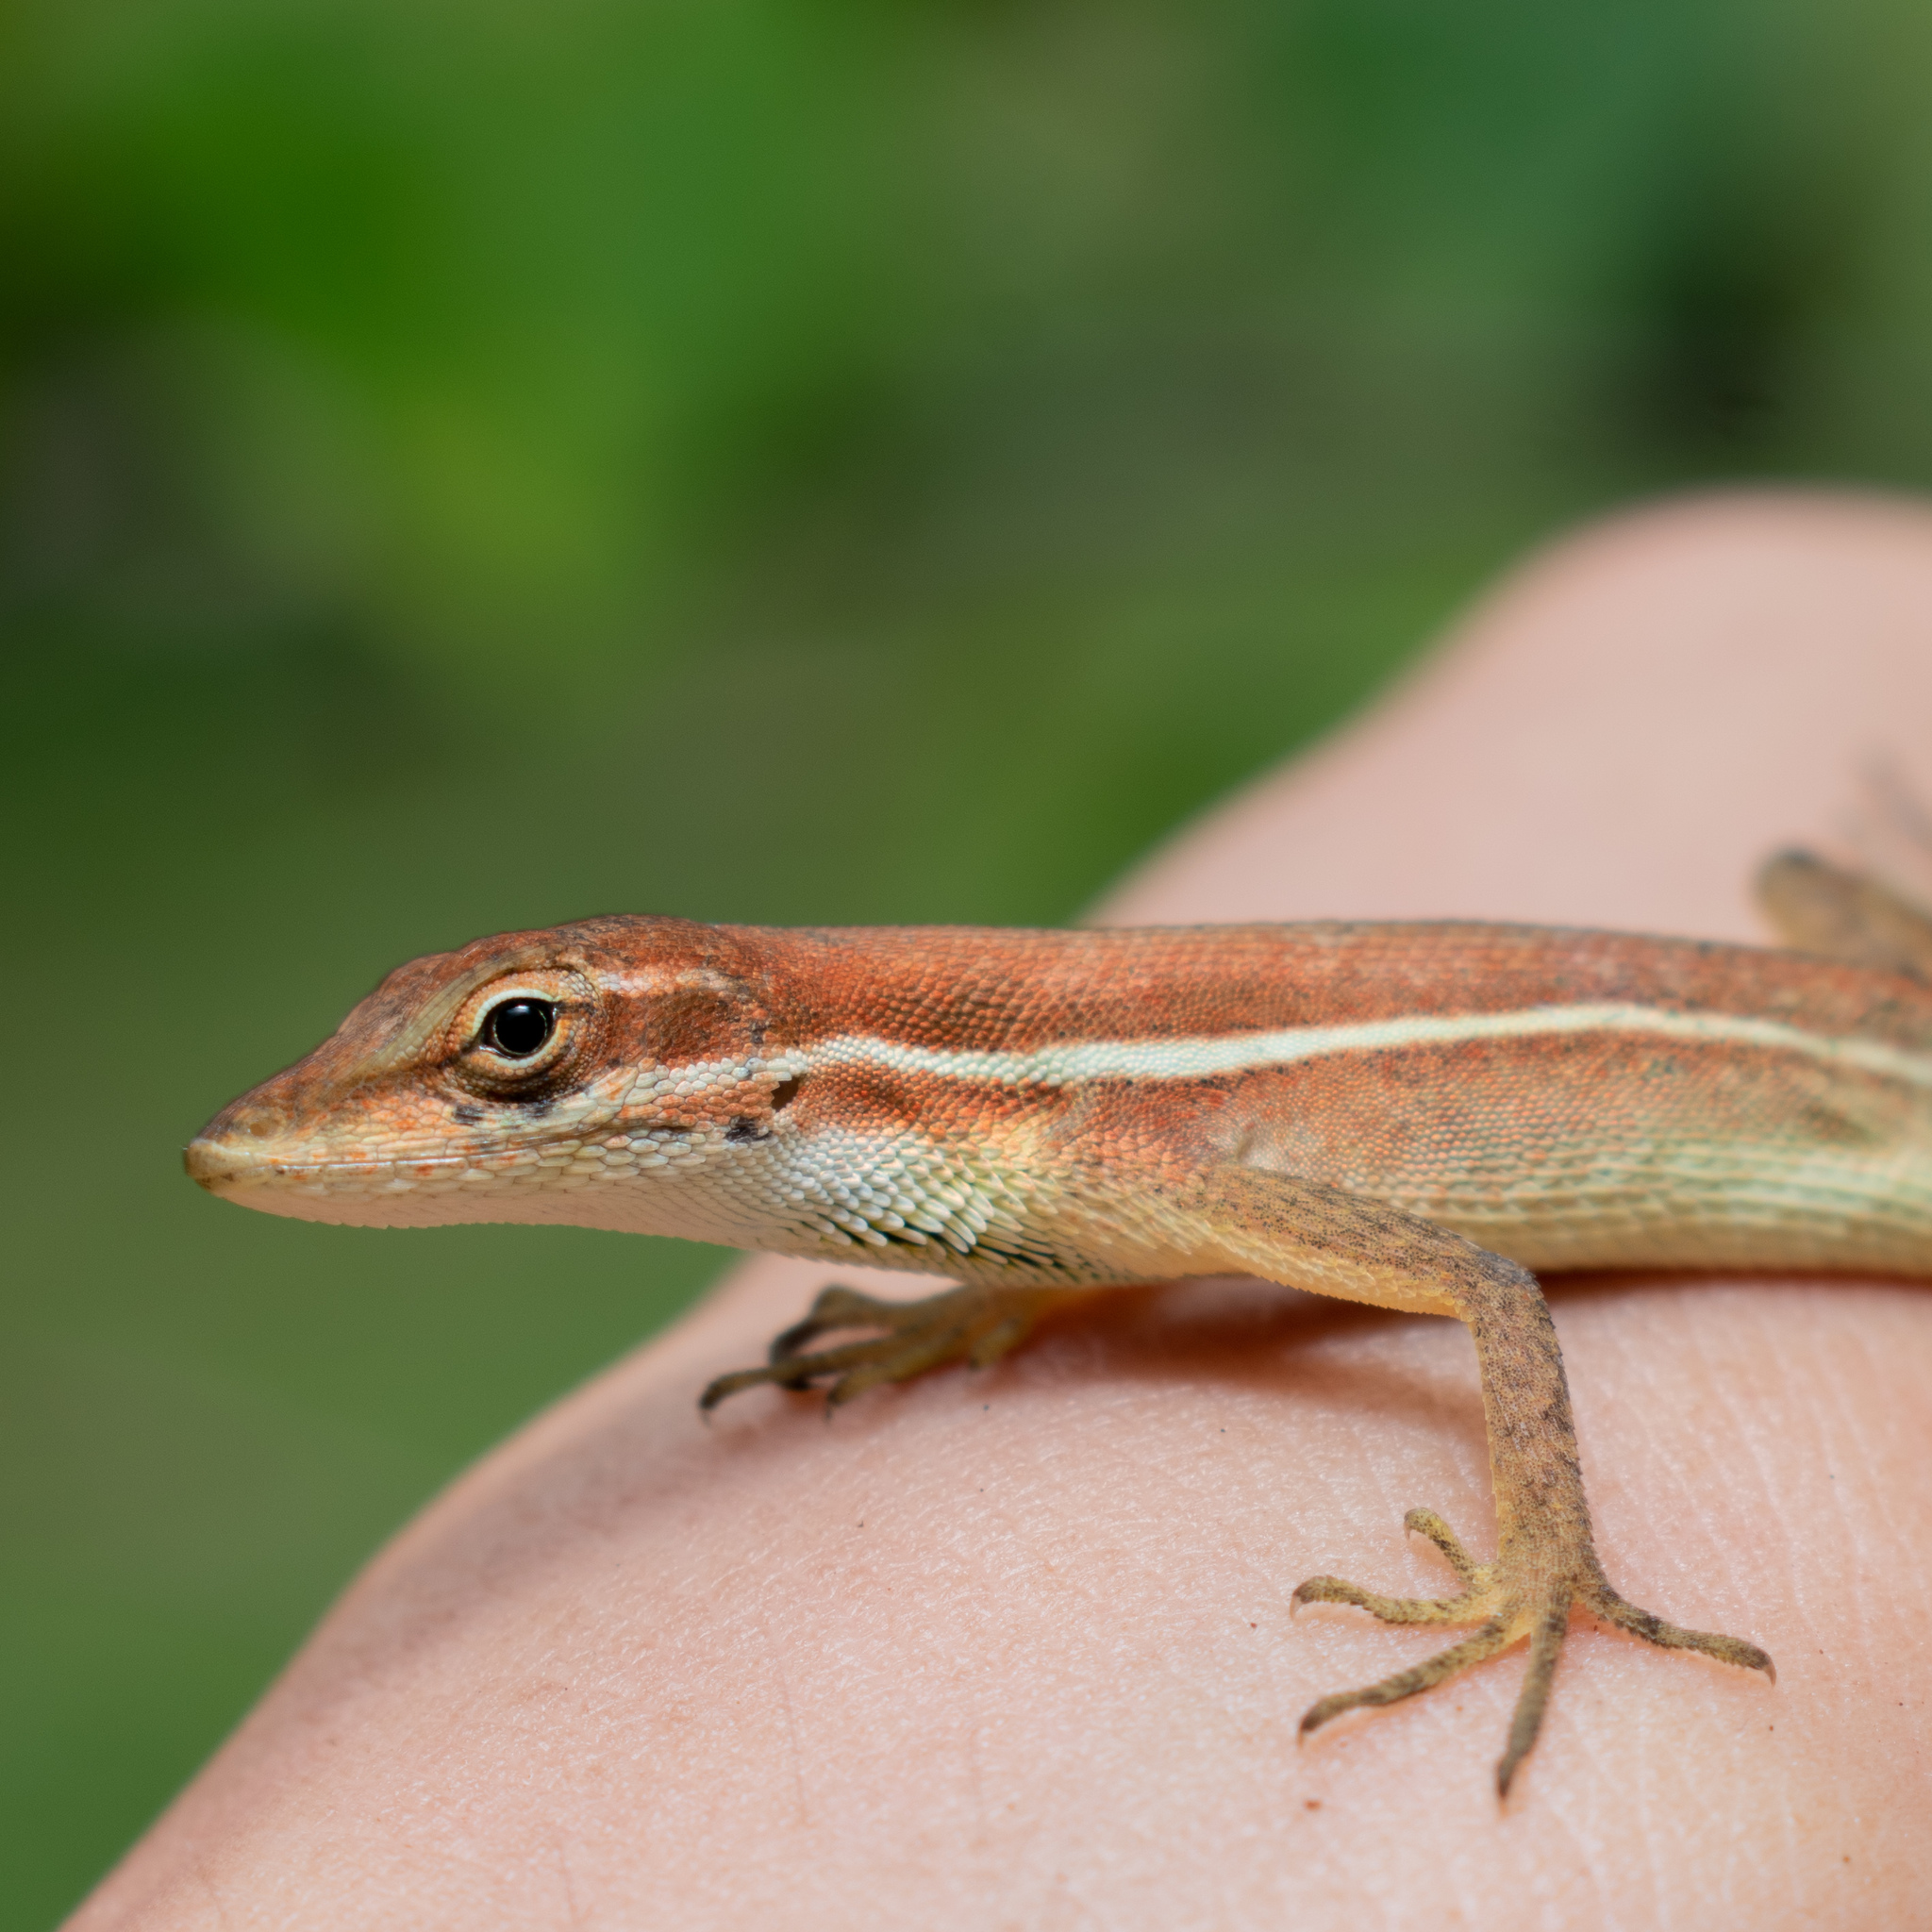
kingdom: Animalia
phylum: Chordata
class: Squamata
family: Dactyloidae
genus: Anolis
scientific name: Anolis auratus
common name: Grass anole
